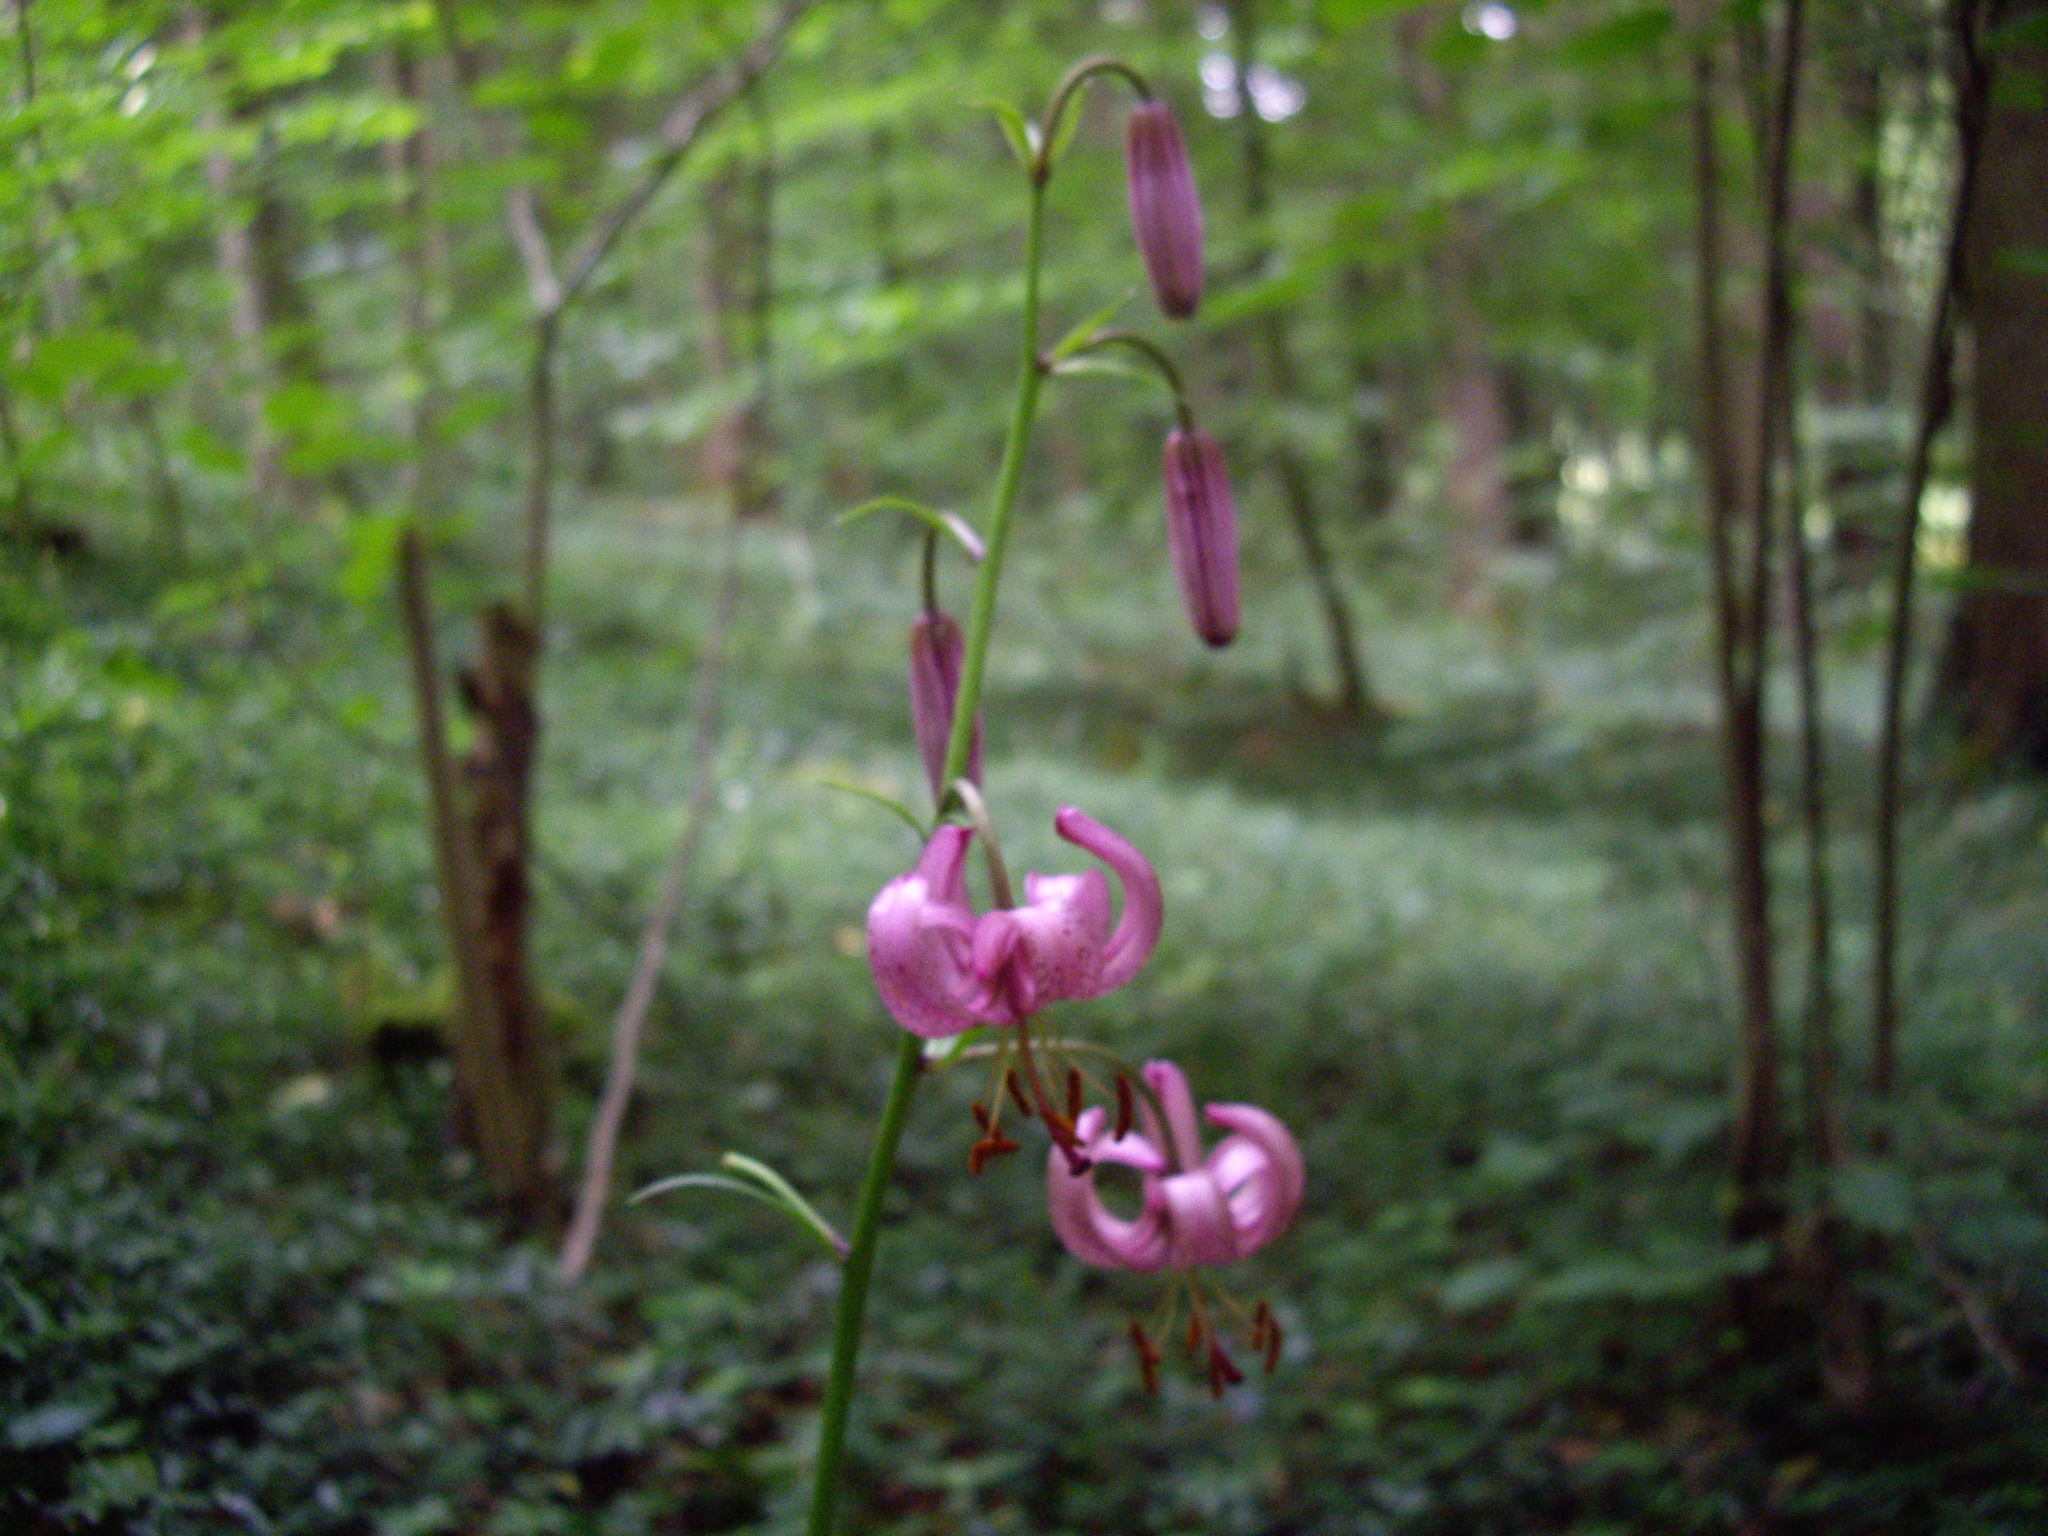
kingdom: Plantae
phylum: Tracheophyta
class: Liliopsida
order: Liliales
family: Liliaceae
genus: Lilium
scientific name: Lilium martagon
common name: Martagon lily
